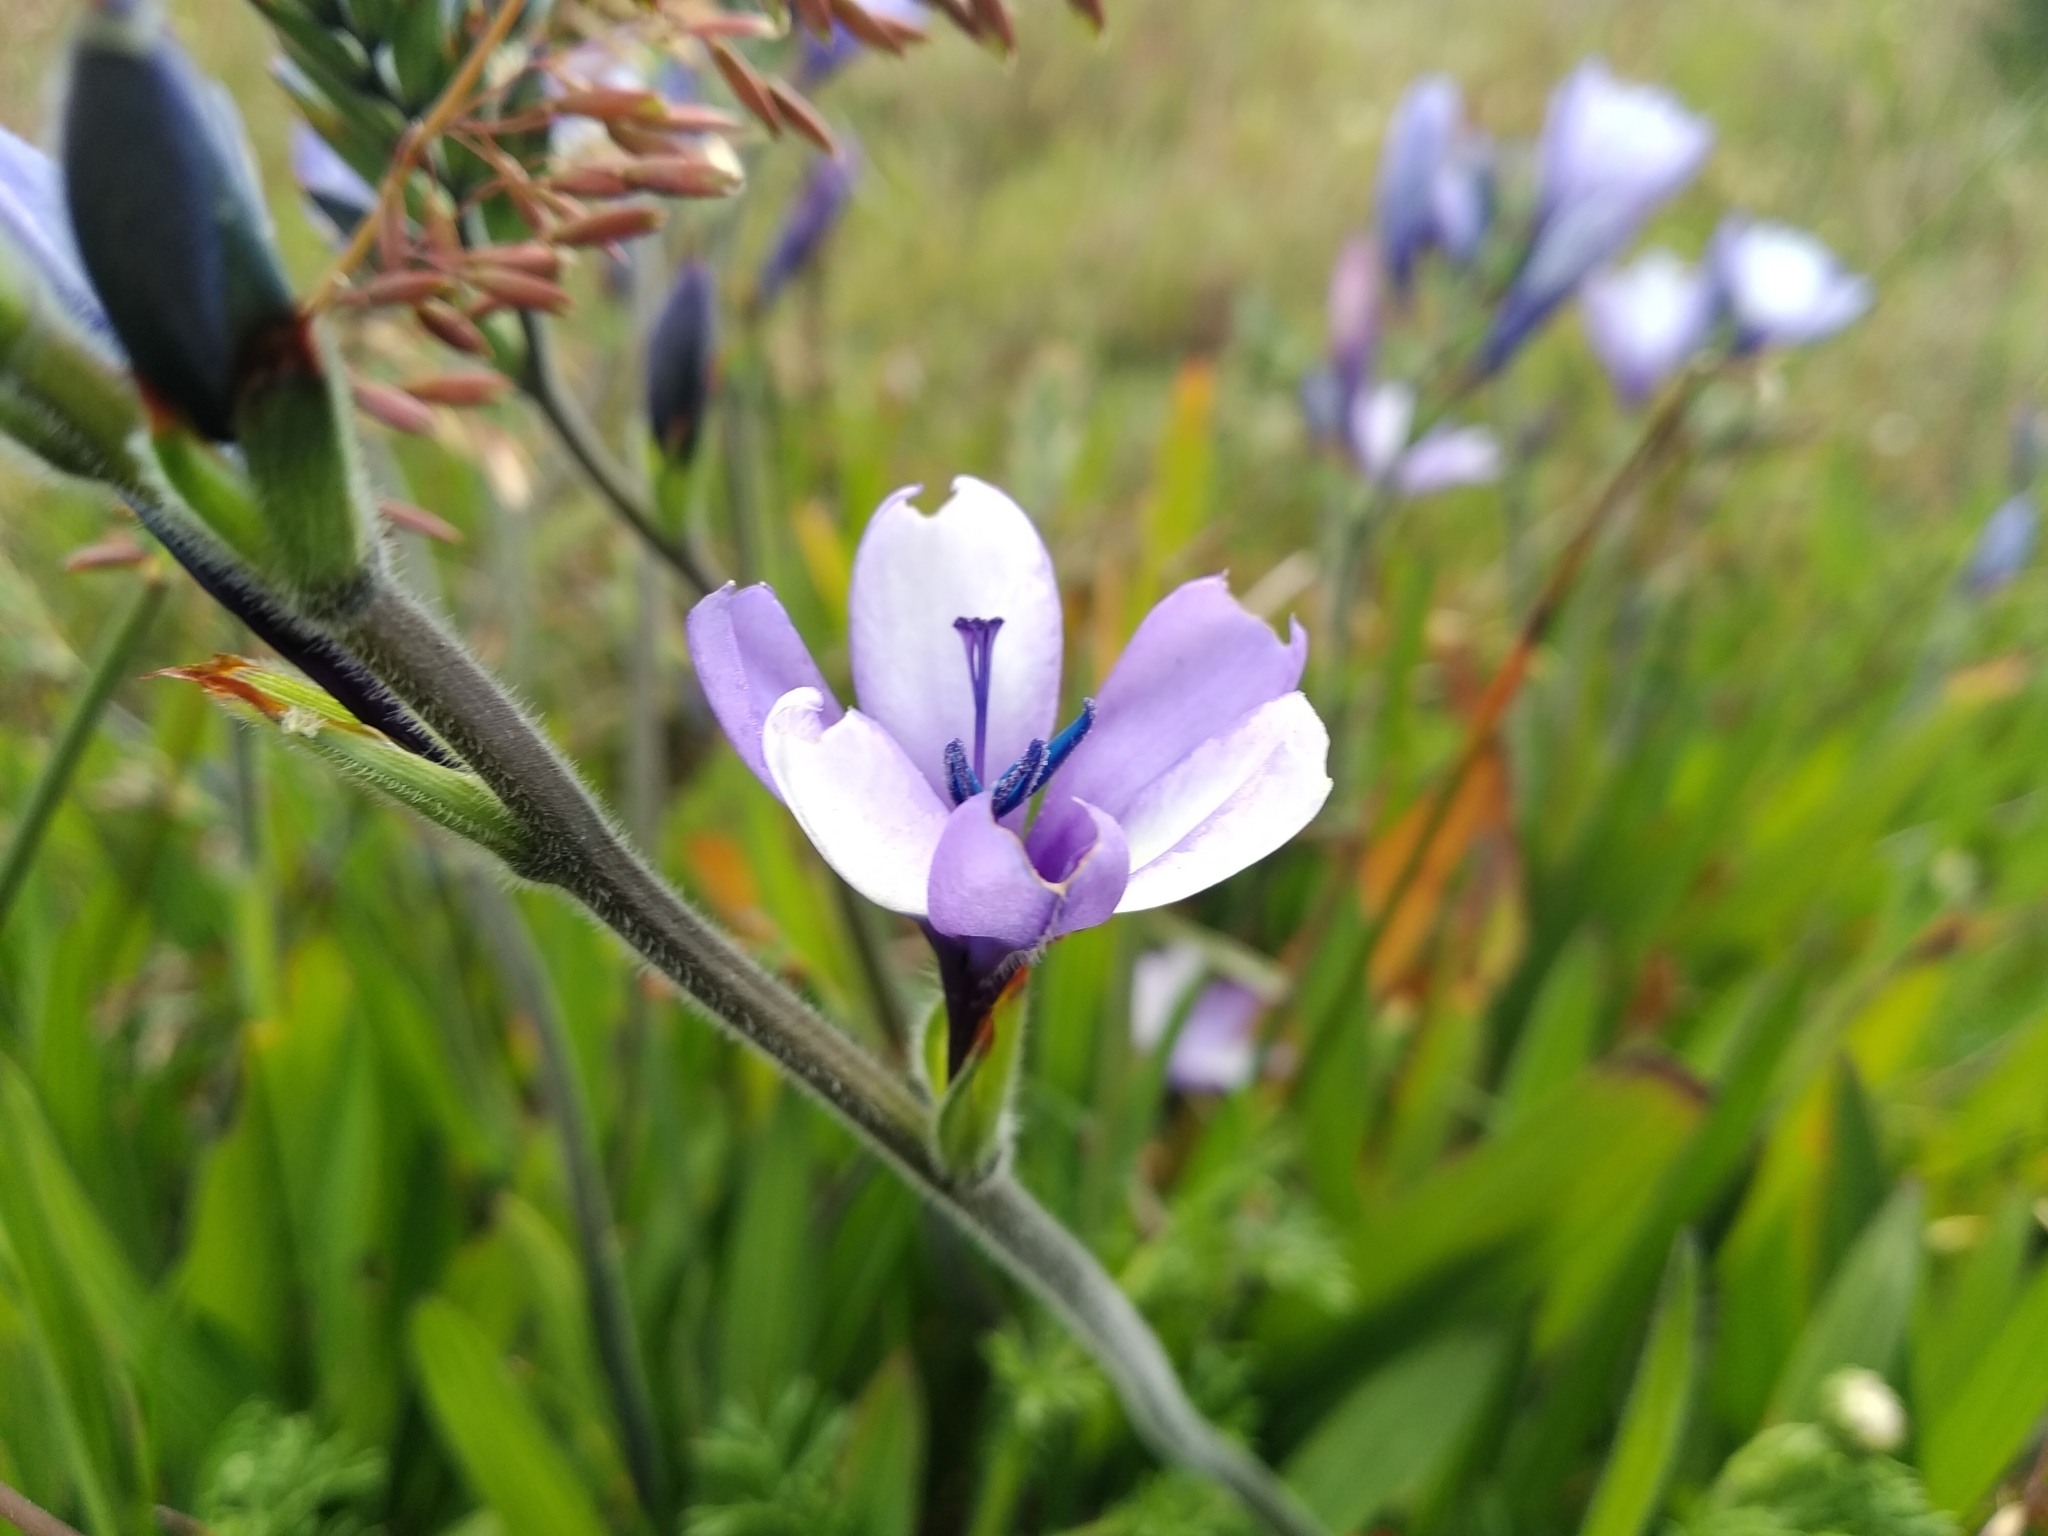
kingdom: Plantae
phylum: Tracheophyta
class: Liliopsida
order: Asparagales
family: Iridaceae
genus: Babiana
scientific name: Babiana nervosa
